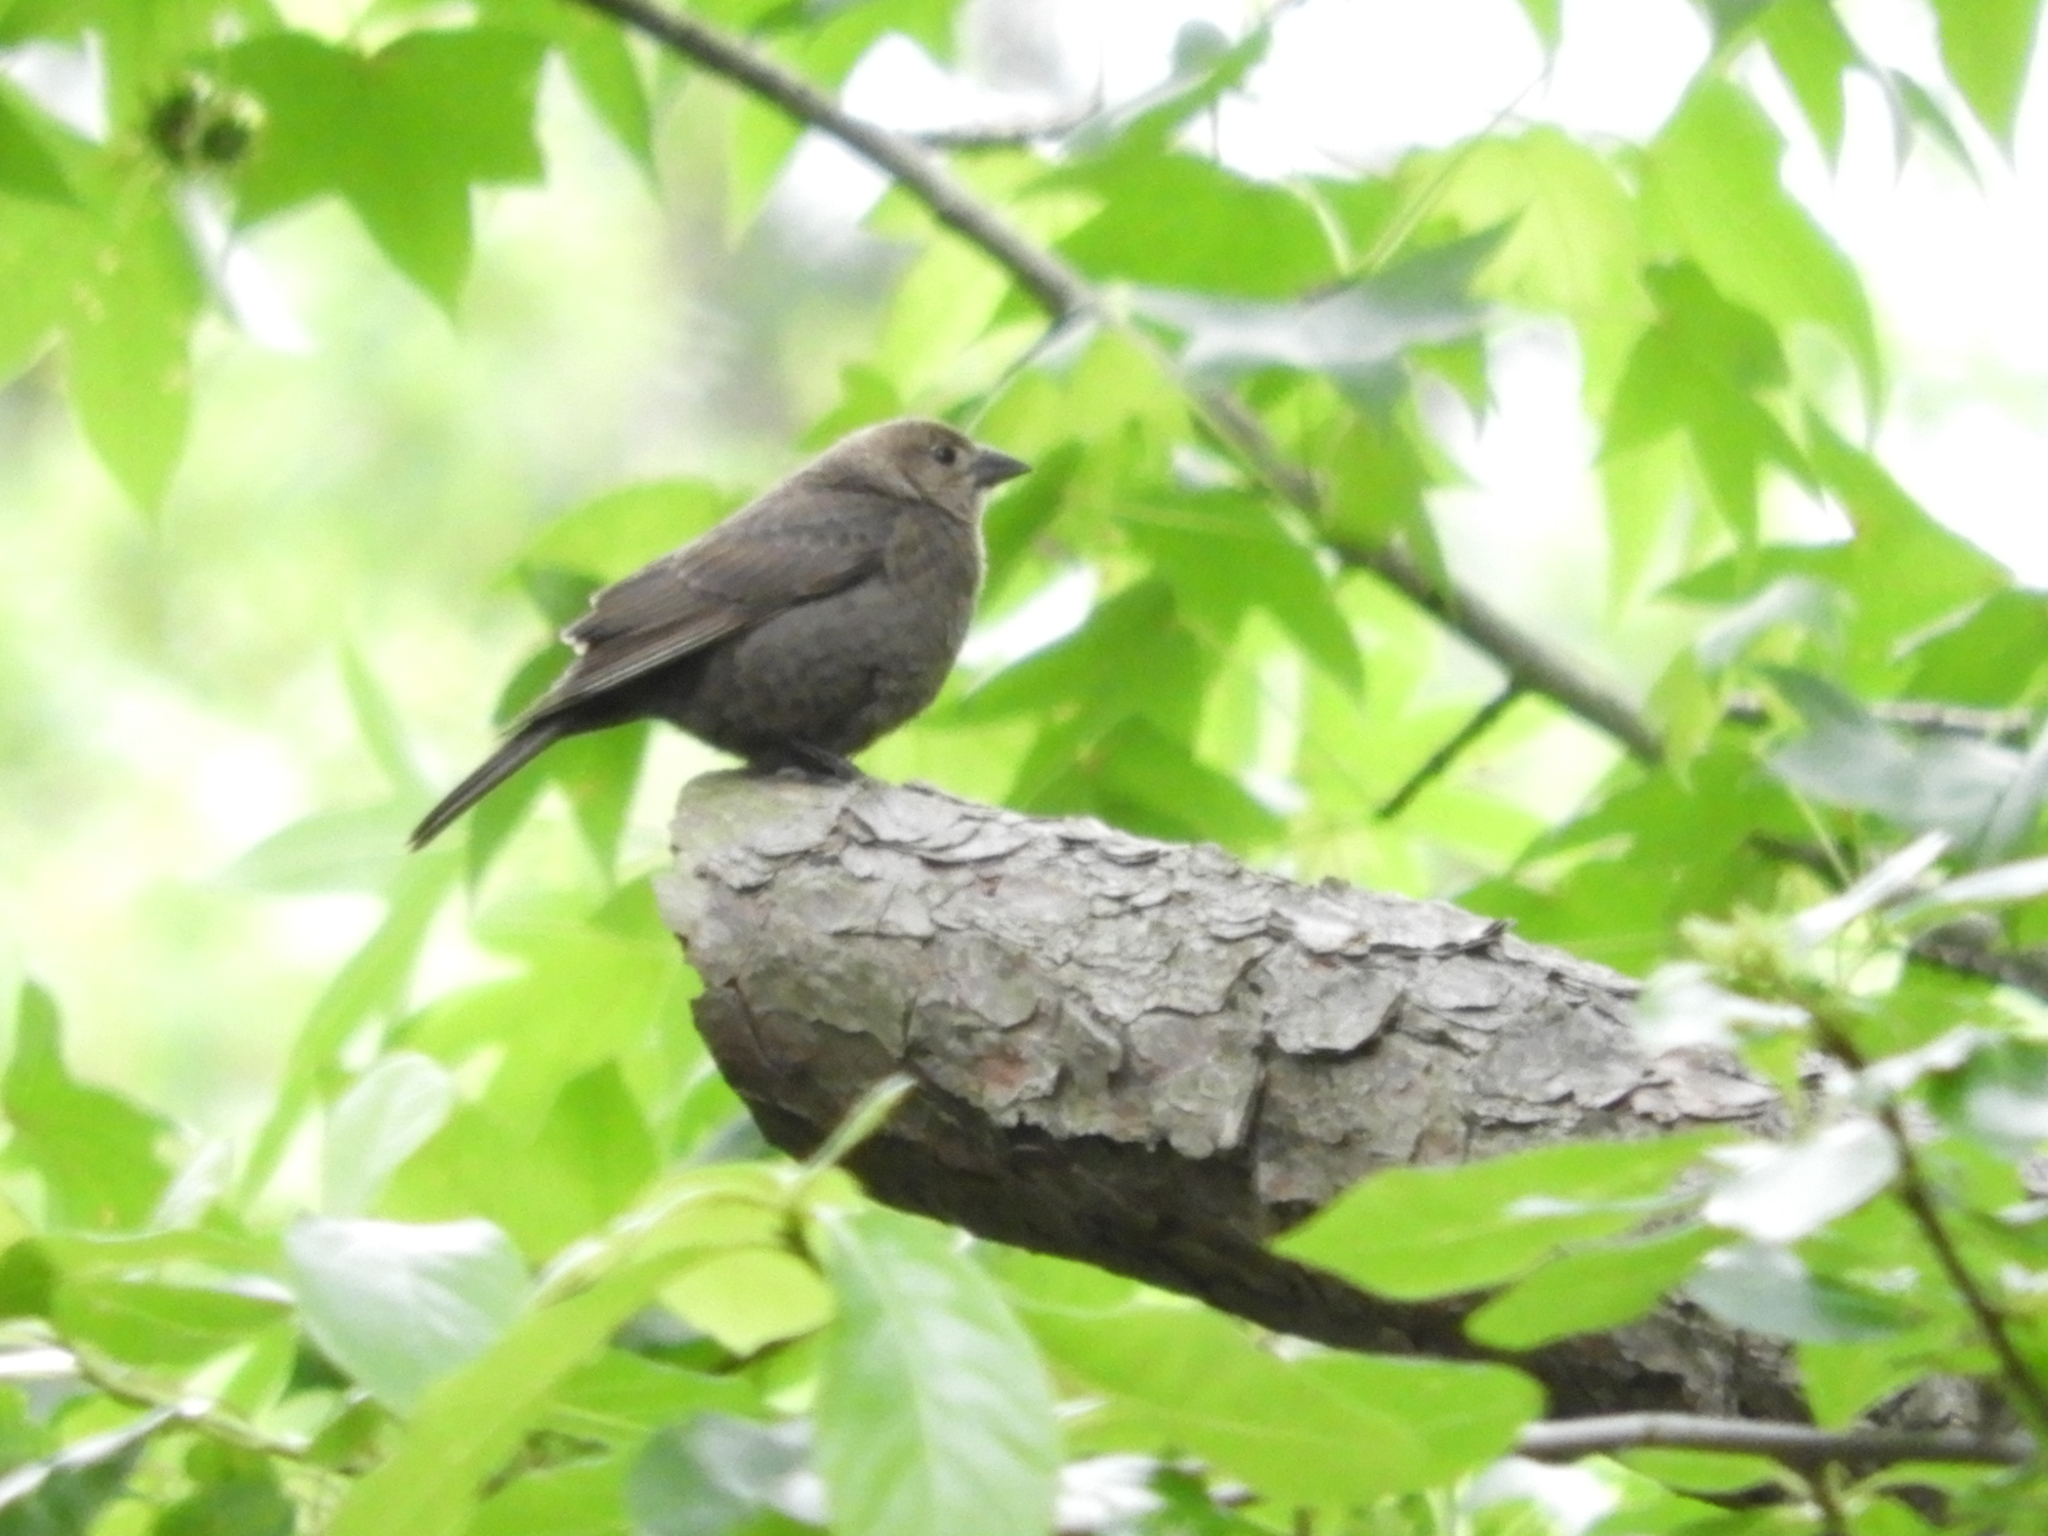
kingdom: Animalia
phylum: Chordata
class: Aves
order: Passeriformes
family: Icteridae
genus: Molothrus
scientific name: Molothrus ater
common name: Brown-headed cowbird
